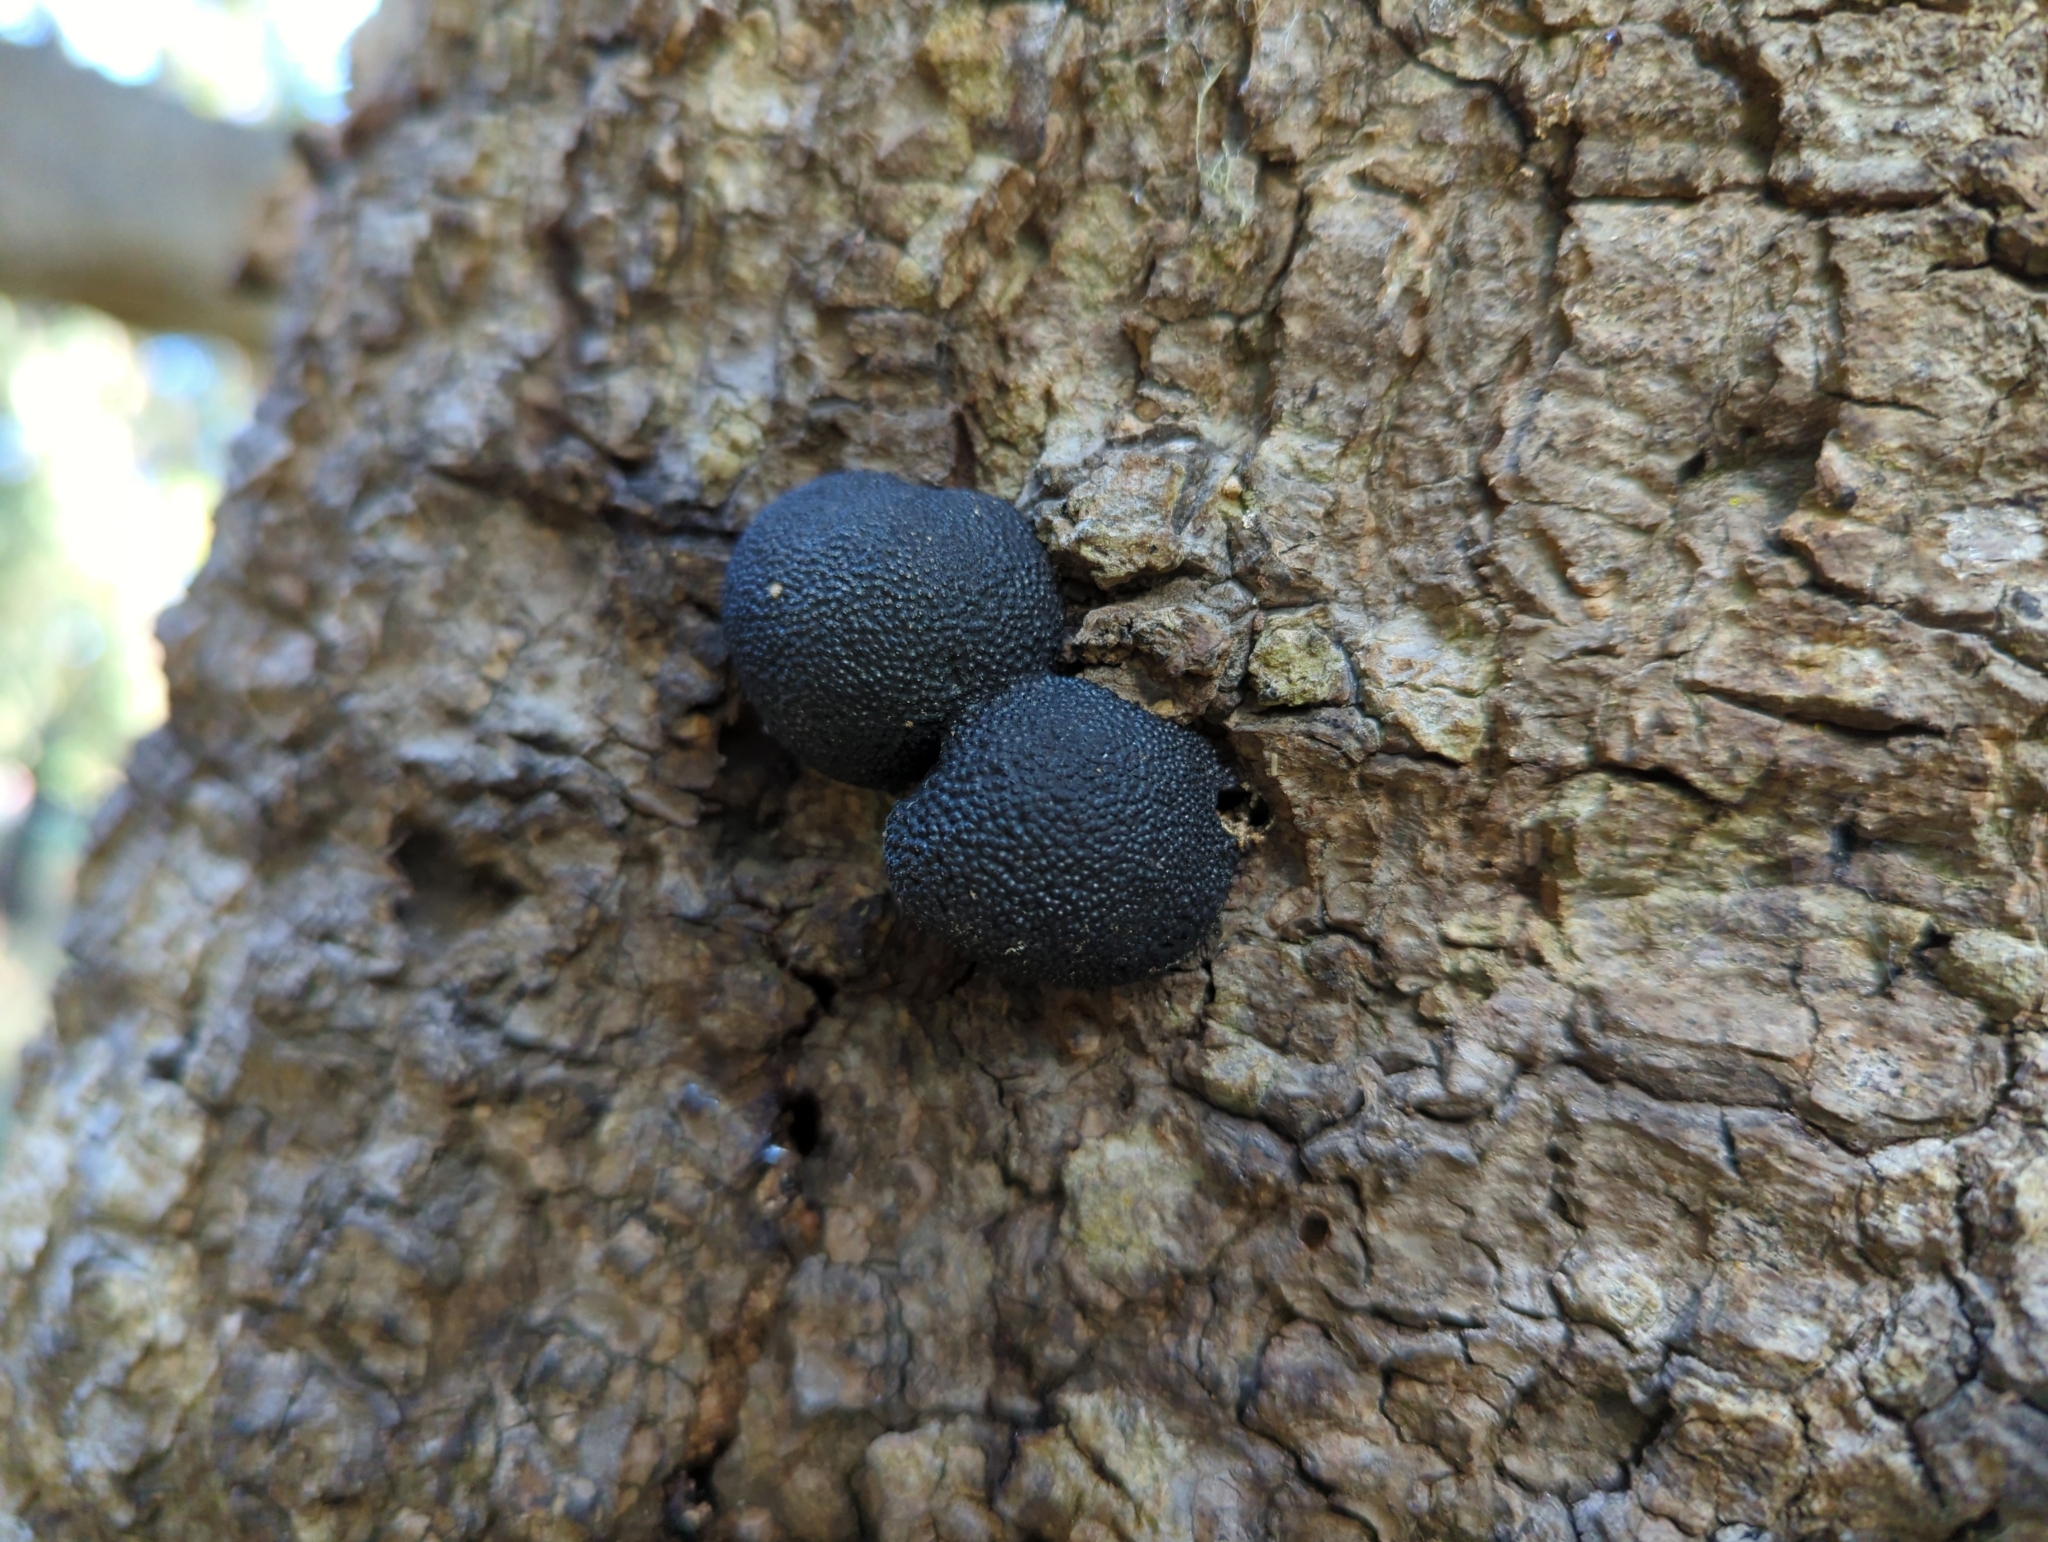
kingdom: Fungi
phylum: Ascomycota
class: Sordariomycetes
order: Xylariales
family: Hypoxylaceae
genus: Annulohypoxylon
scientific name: Annulohypoxylon thouarsianum
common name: Cramp balls
